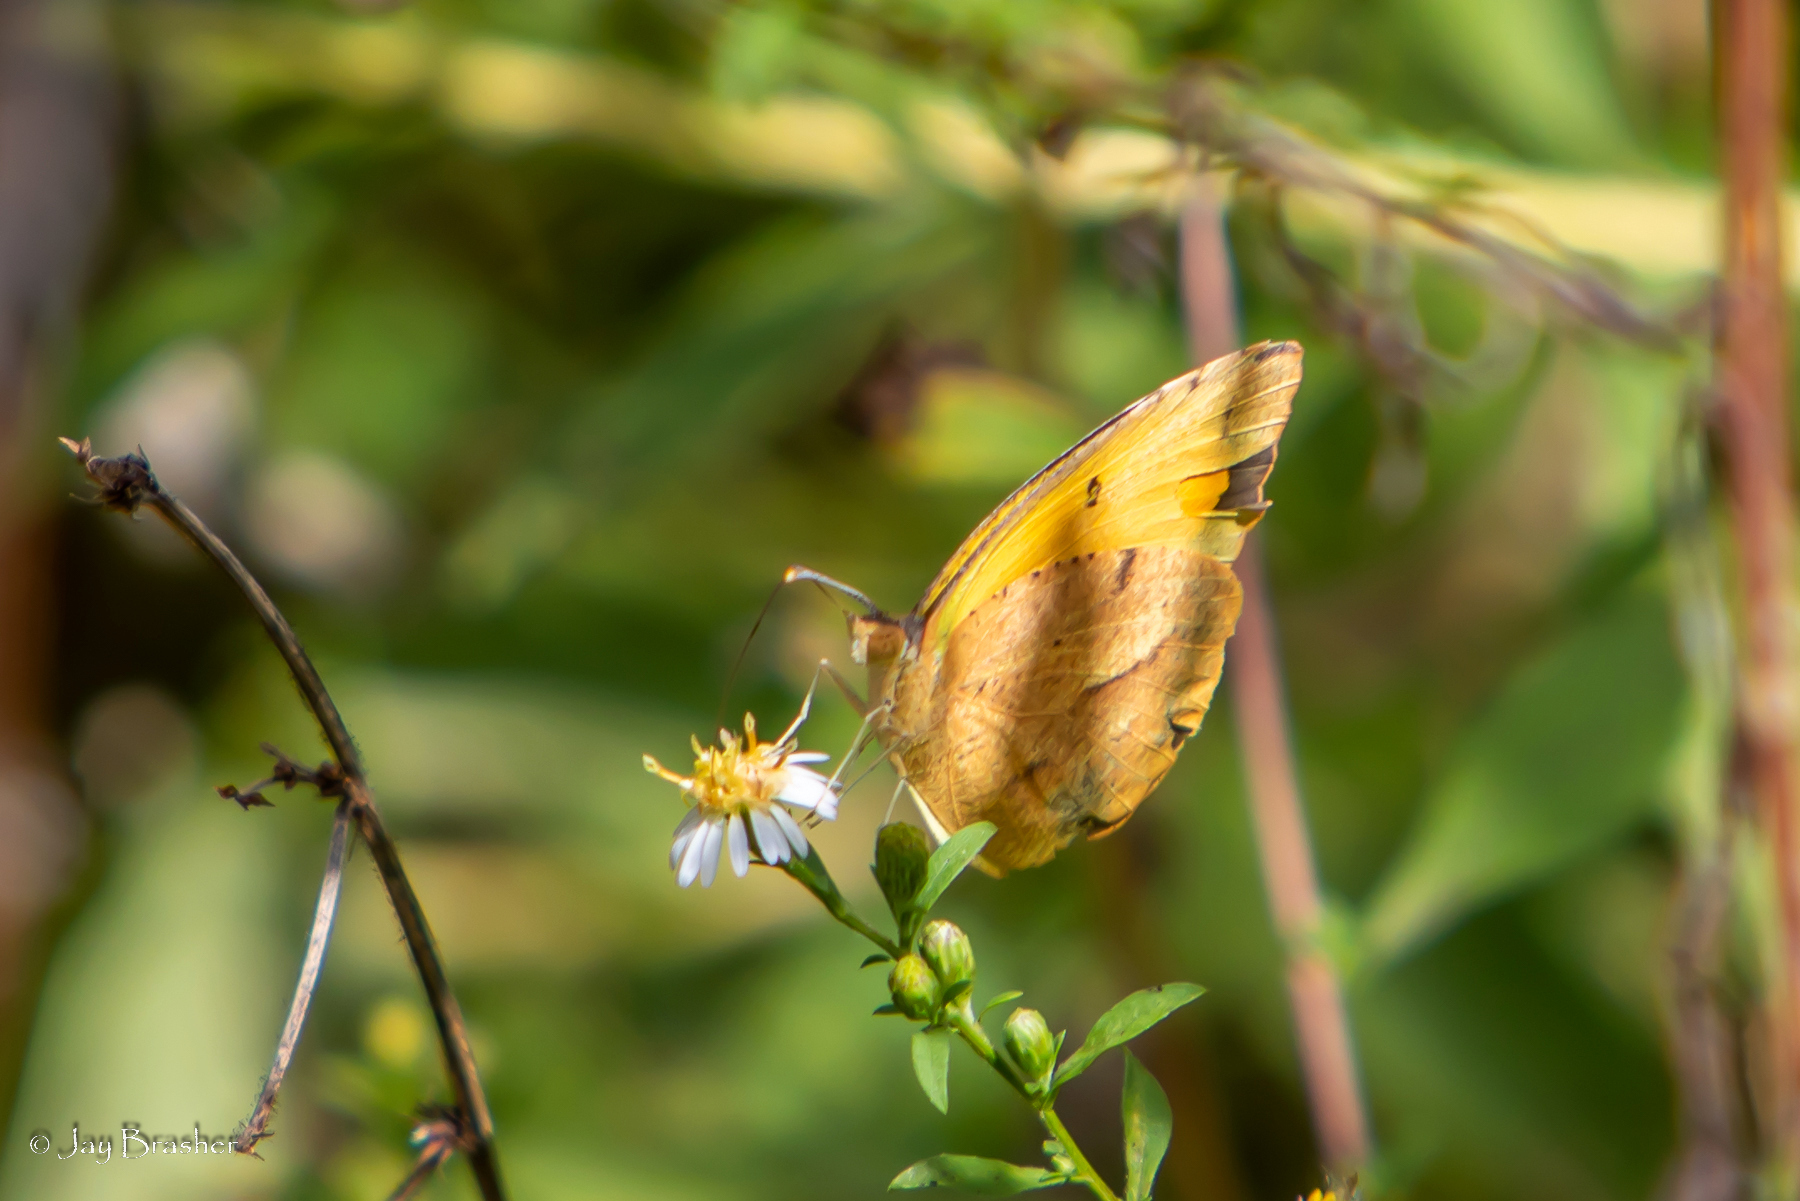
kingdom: Animalia
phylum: Arthropoda
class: Insecta
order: Lepidoptera
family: Pieridae
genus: Abaeis
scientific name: Abaeis nicippe
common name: Sleepy orange
